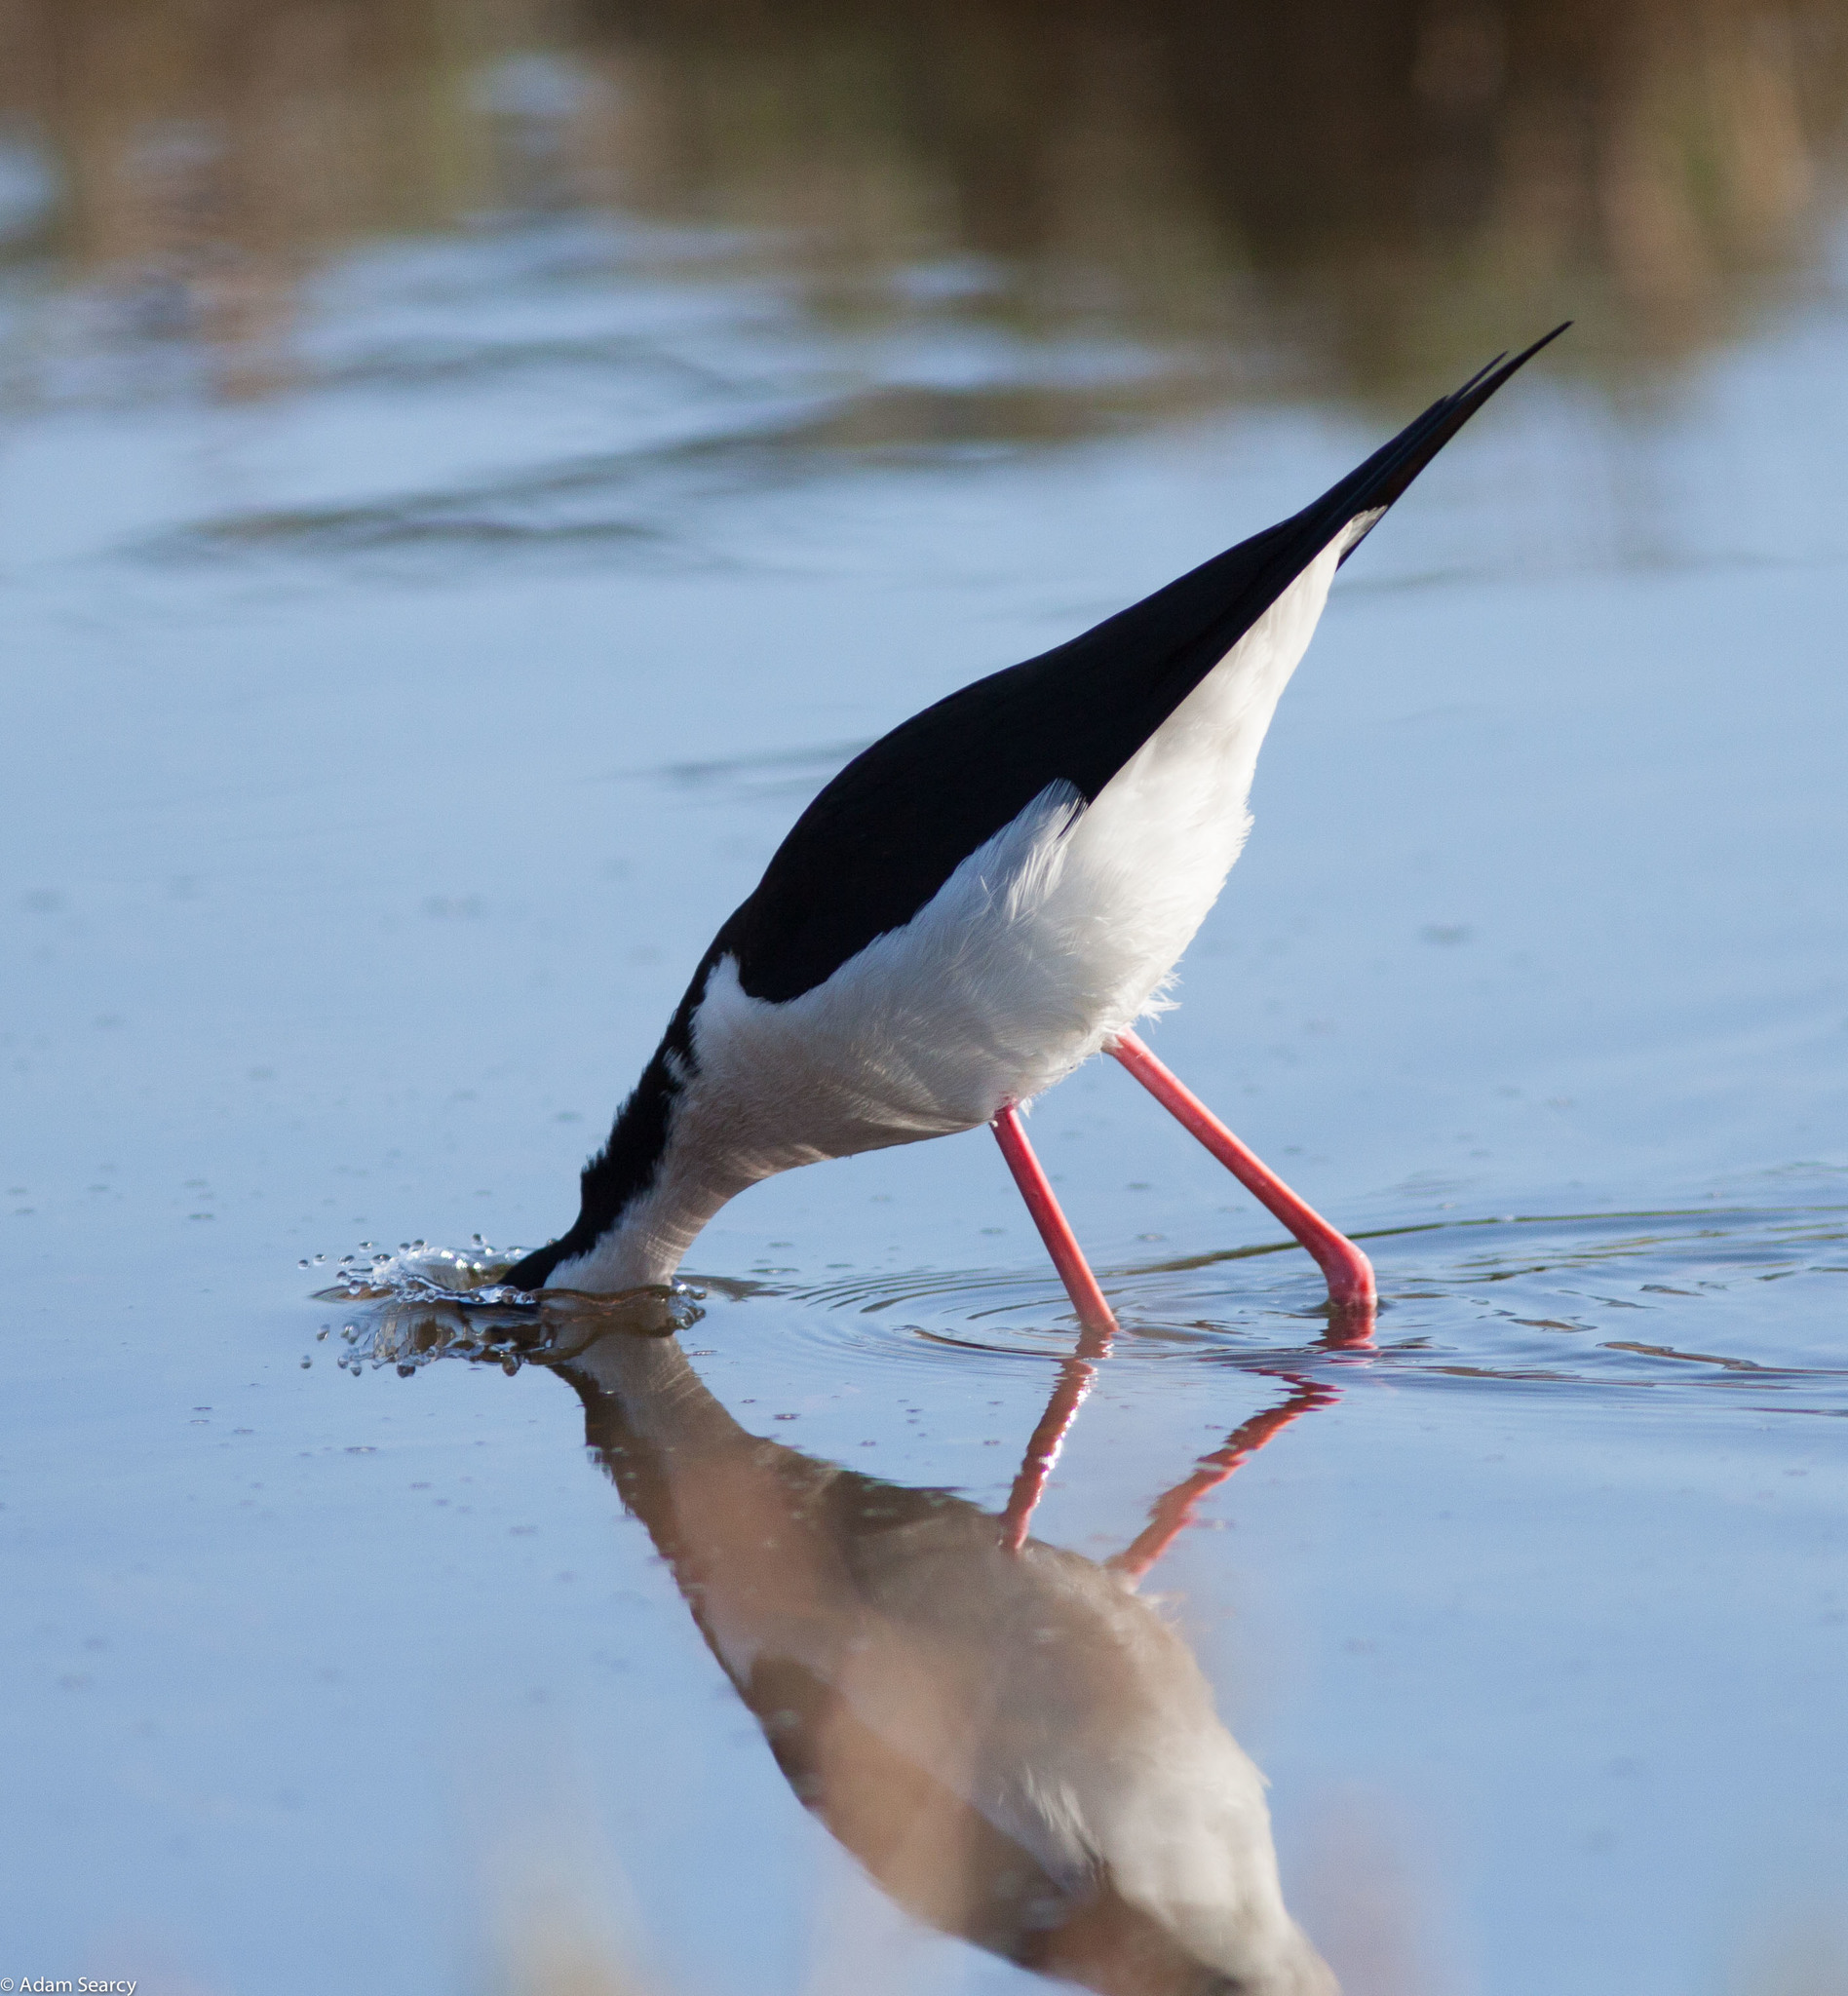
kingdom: Animalia
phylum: Chordata
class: Aves
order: Charadriiformes
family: Recurvirostridae
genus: Himantopus
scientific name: Himantopus mexicanus
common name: Black-necked stilt
